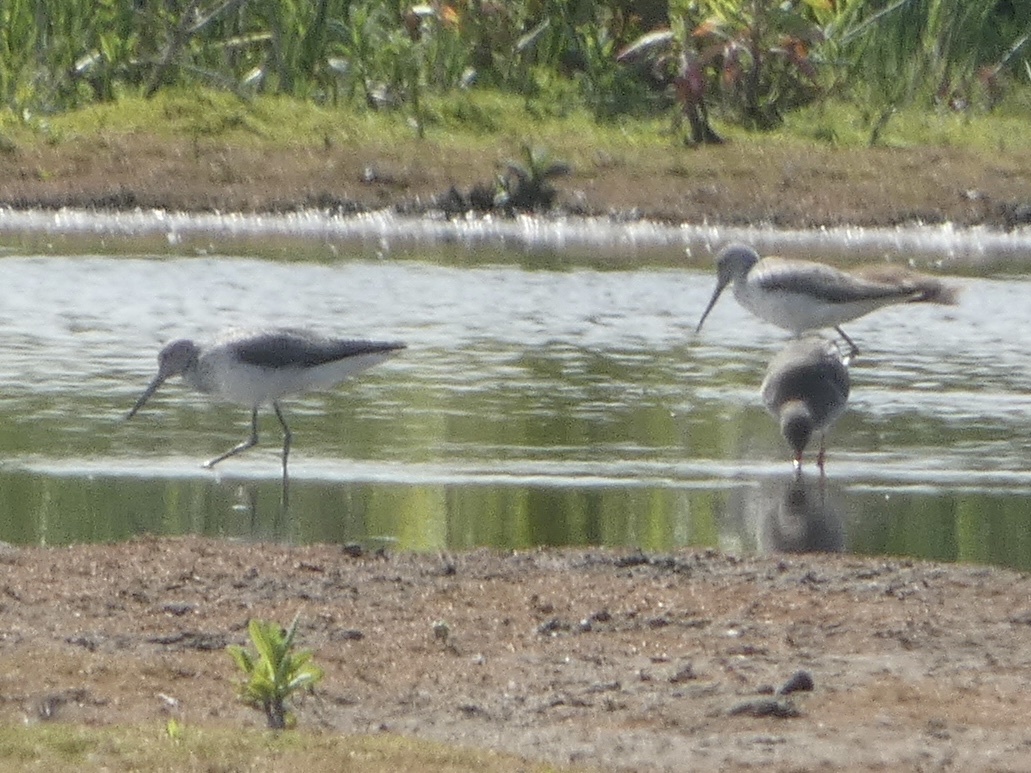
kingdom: Animalia
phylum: Chordata
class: Aves
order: Charadriiformes
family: Scolopacidae
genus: Tringa
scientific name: Tringa nebularia
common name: Common greenshank
